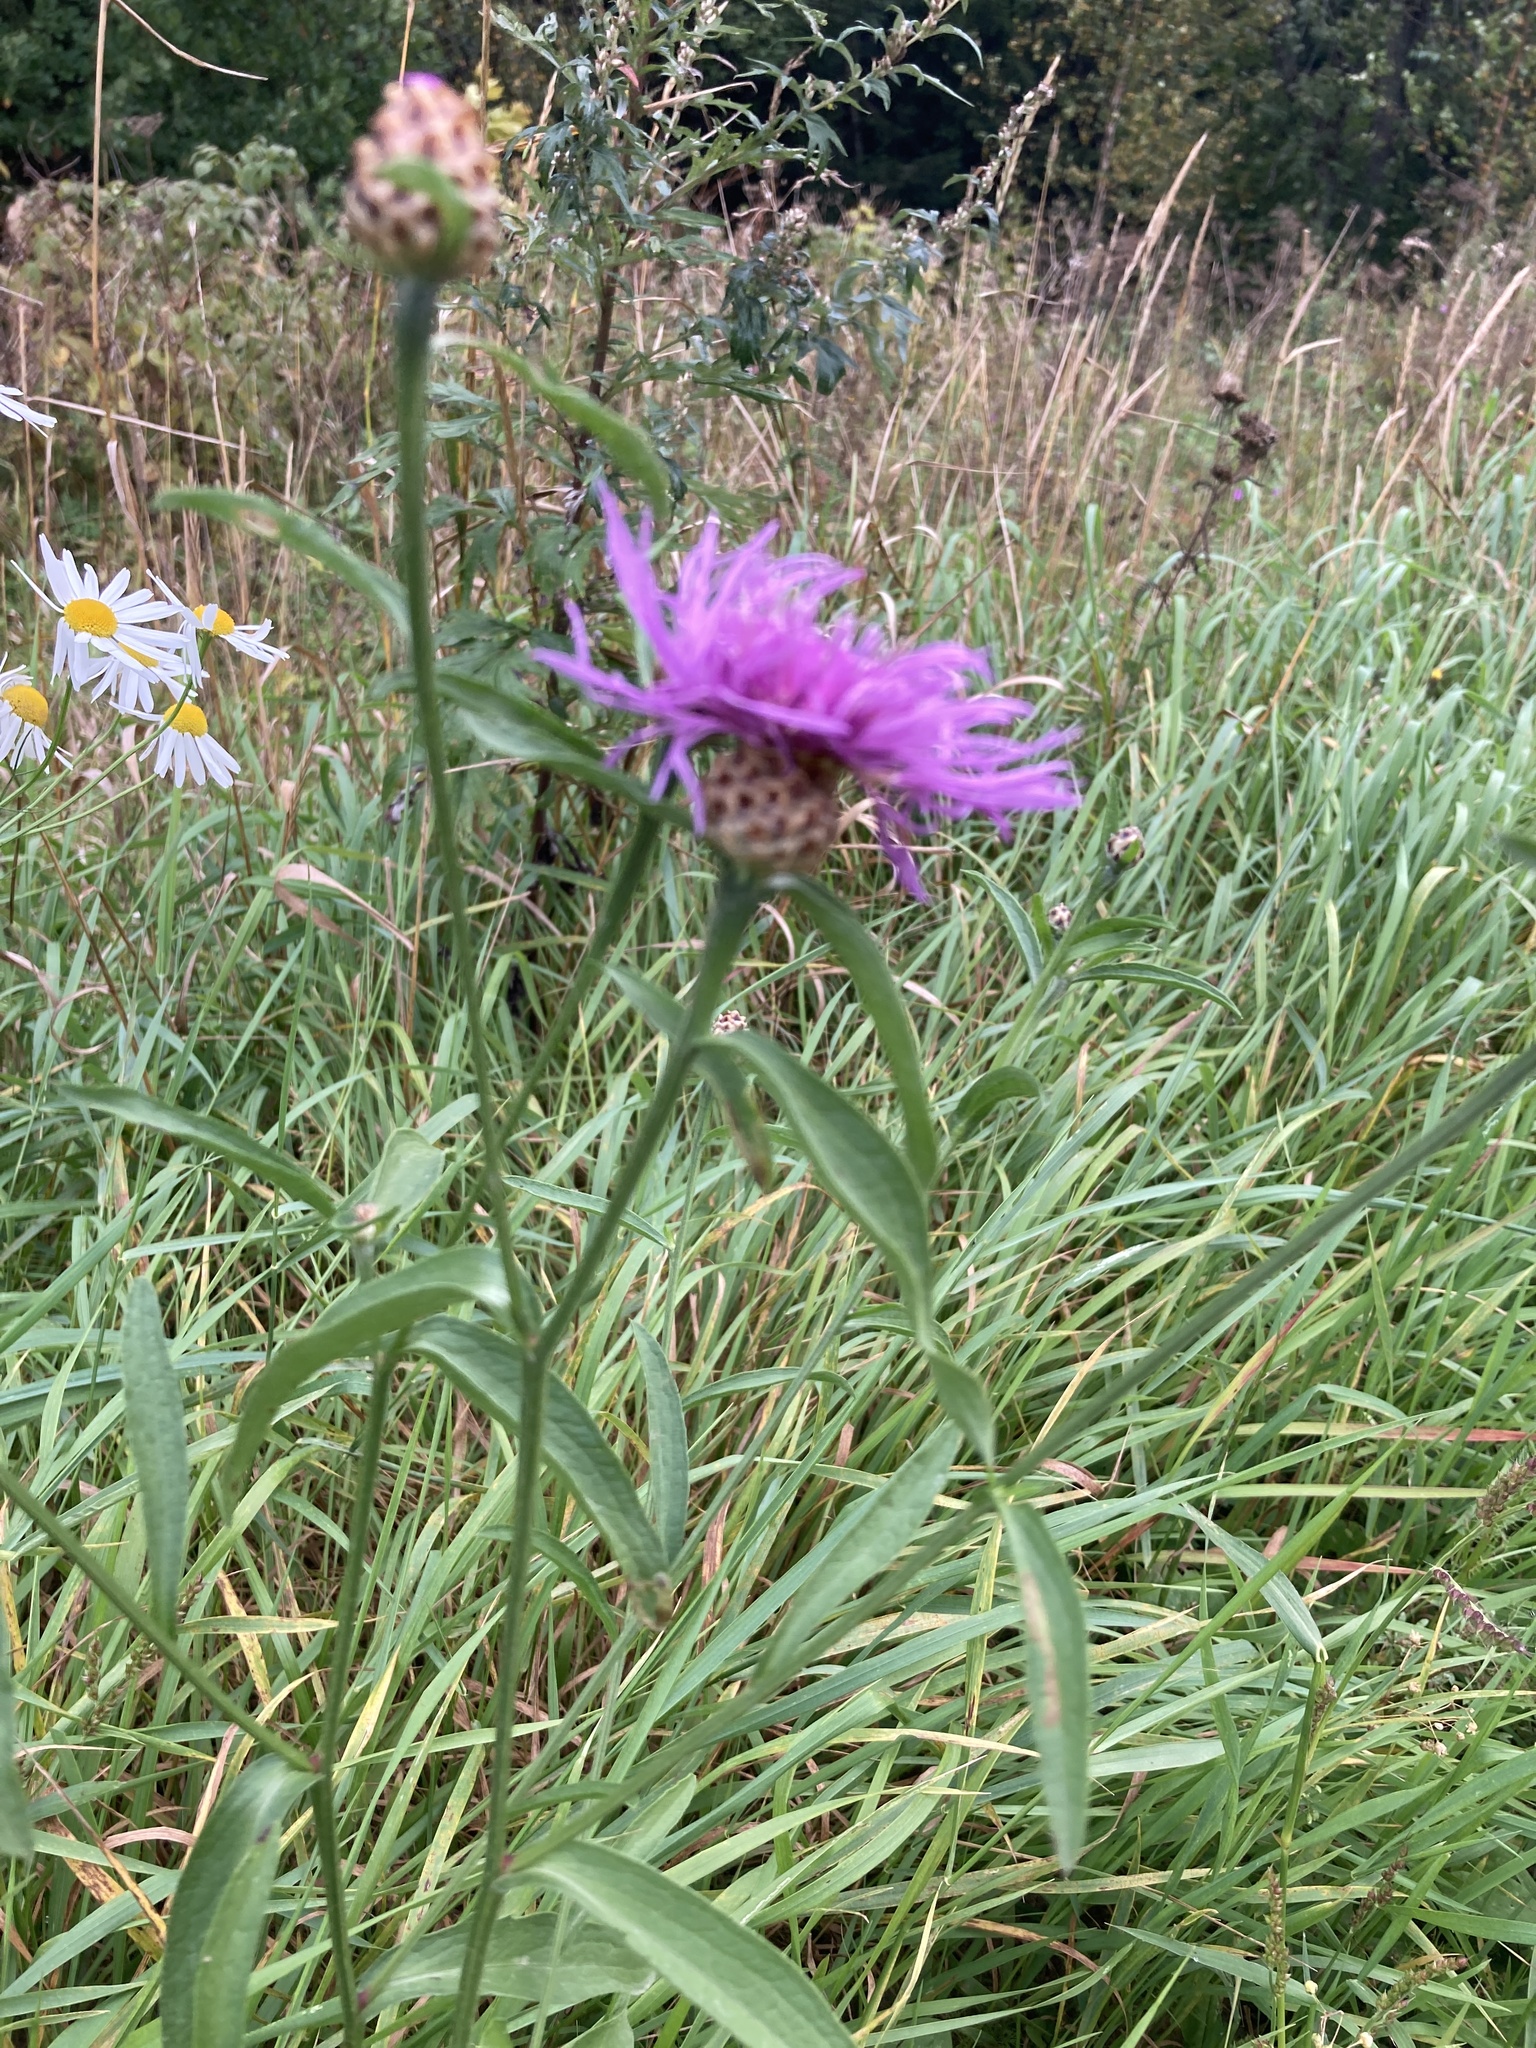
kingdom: Plantae
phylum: Tracheophyta
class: Magnoliopsida
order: Asterales
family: Asteraceae
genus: Centaurea
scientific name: Centaurea jacea
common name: Brown knapweed
